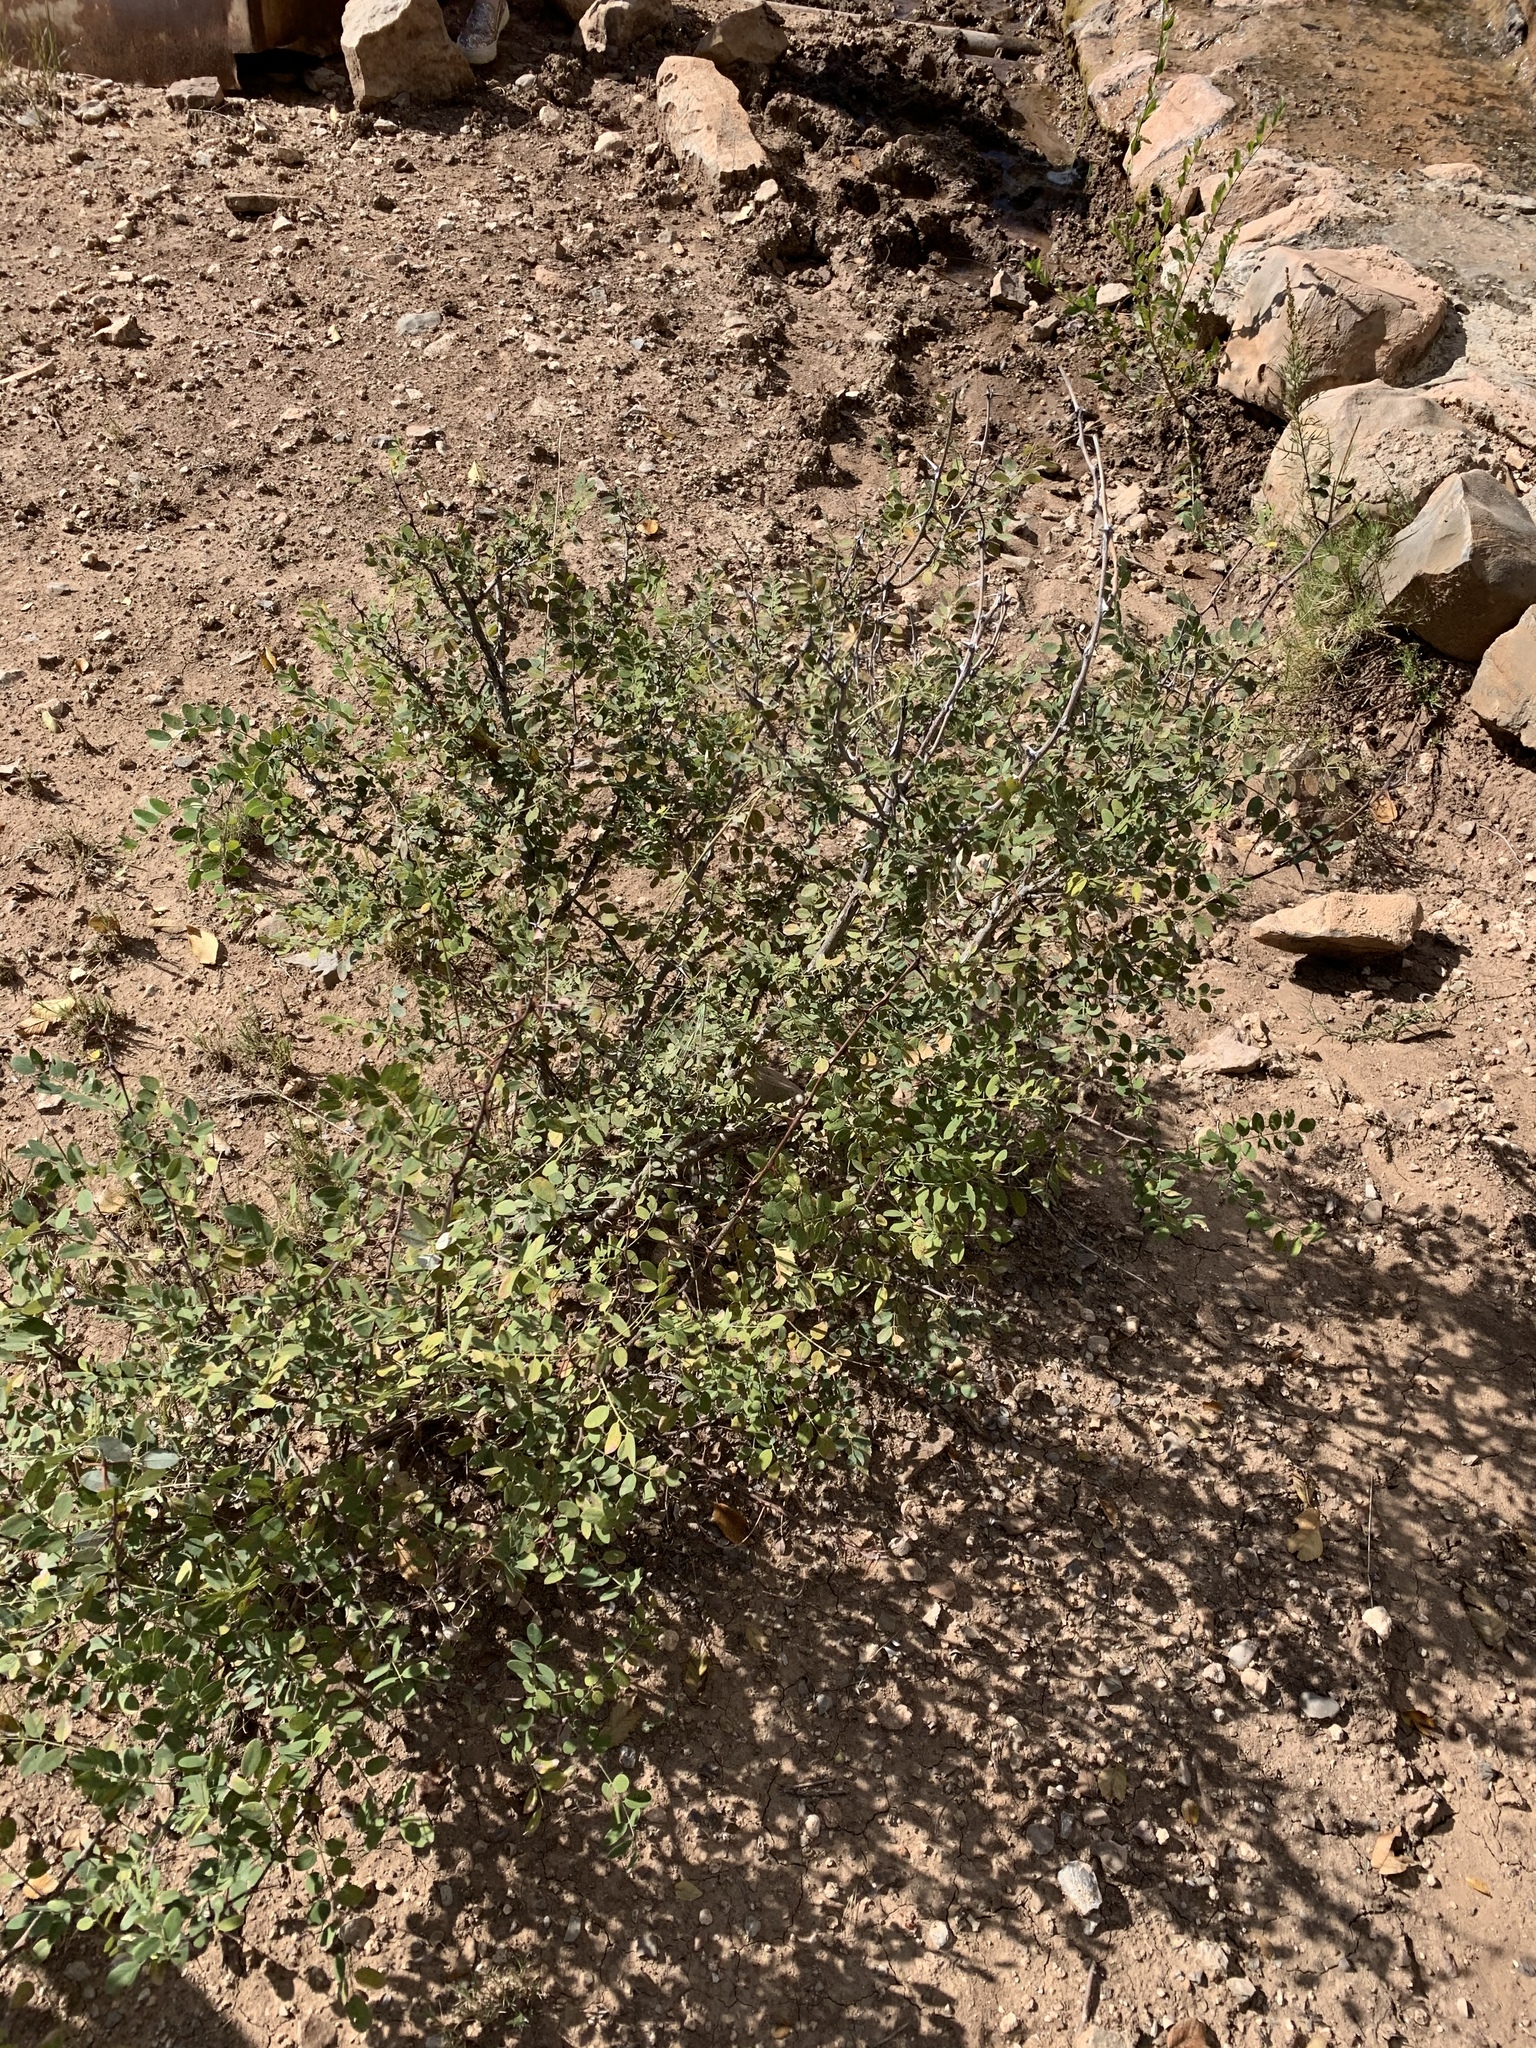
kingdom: Plantae
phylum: Tracheophyta
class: Magnoliopsida
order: Fabales
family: Fabaceae
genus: Robinia
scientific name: Robinia neomexicana
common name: New mexico locust
